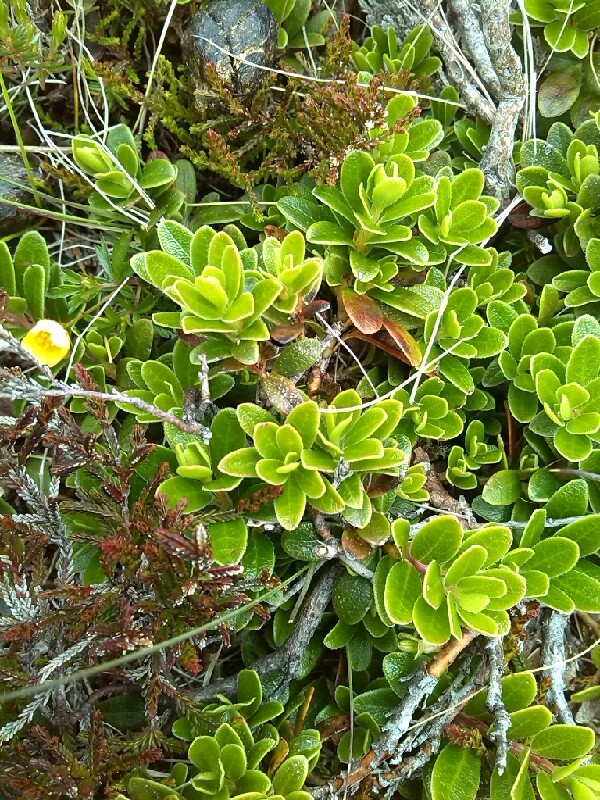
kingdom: Plantae
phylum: Tracheophyta
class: Magnoliopsida
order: Ericales
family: Ericaceae
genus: Arctostaphylos
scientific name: Arctostaphylos uva-ursi
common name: Bearberry
